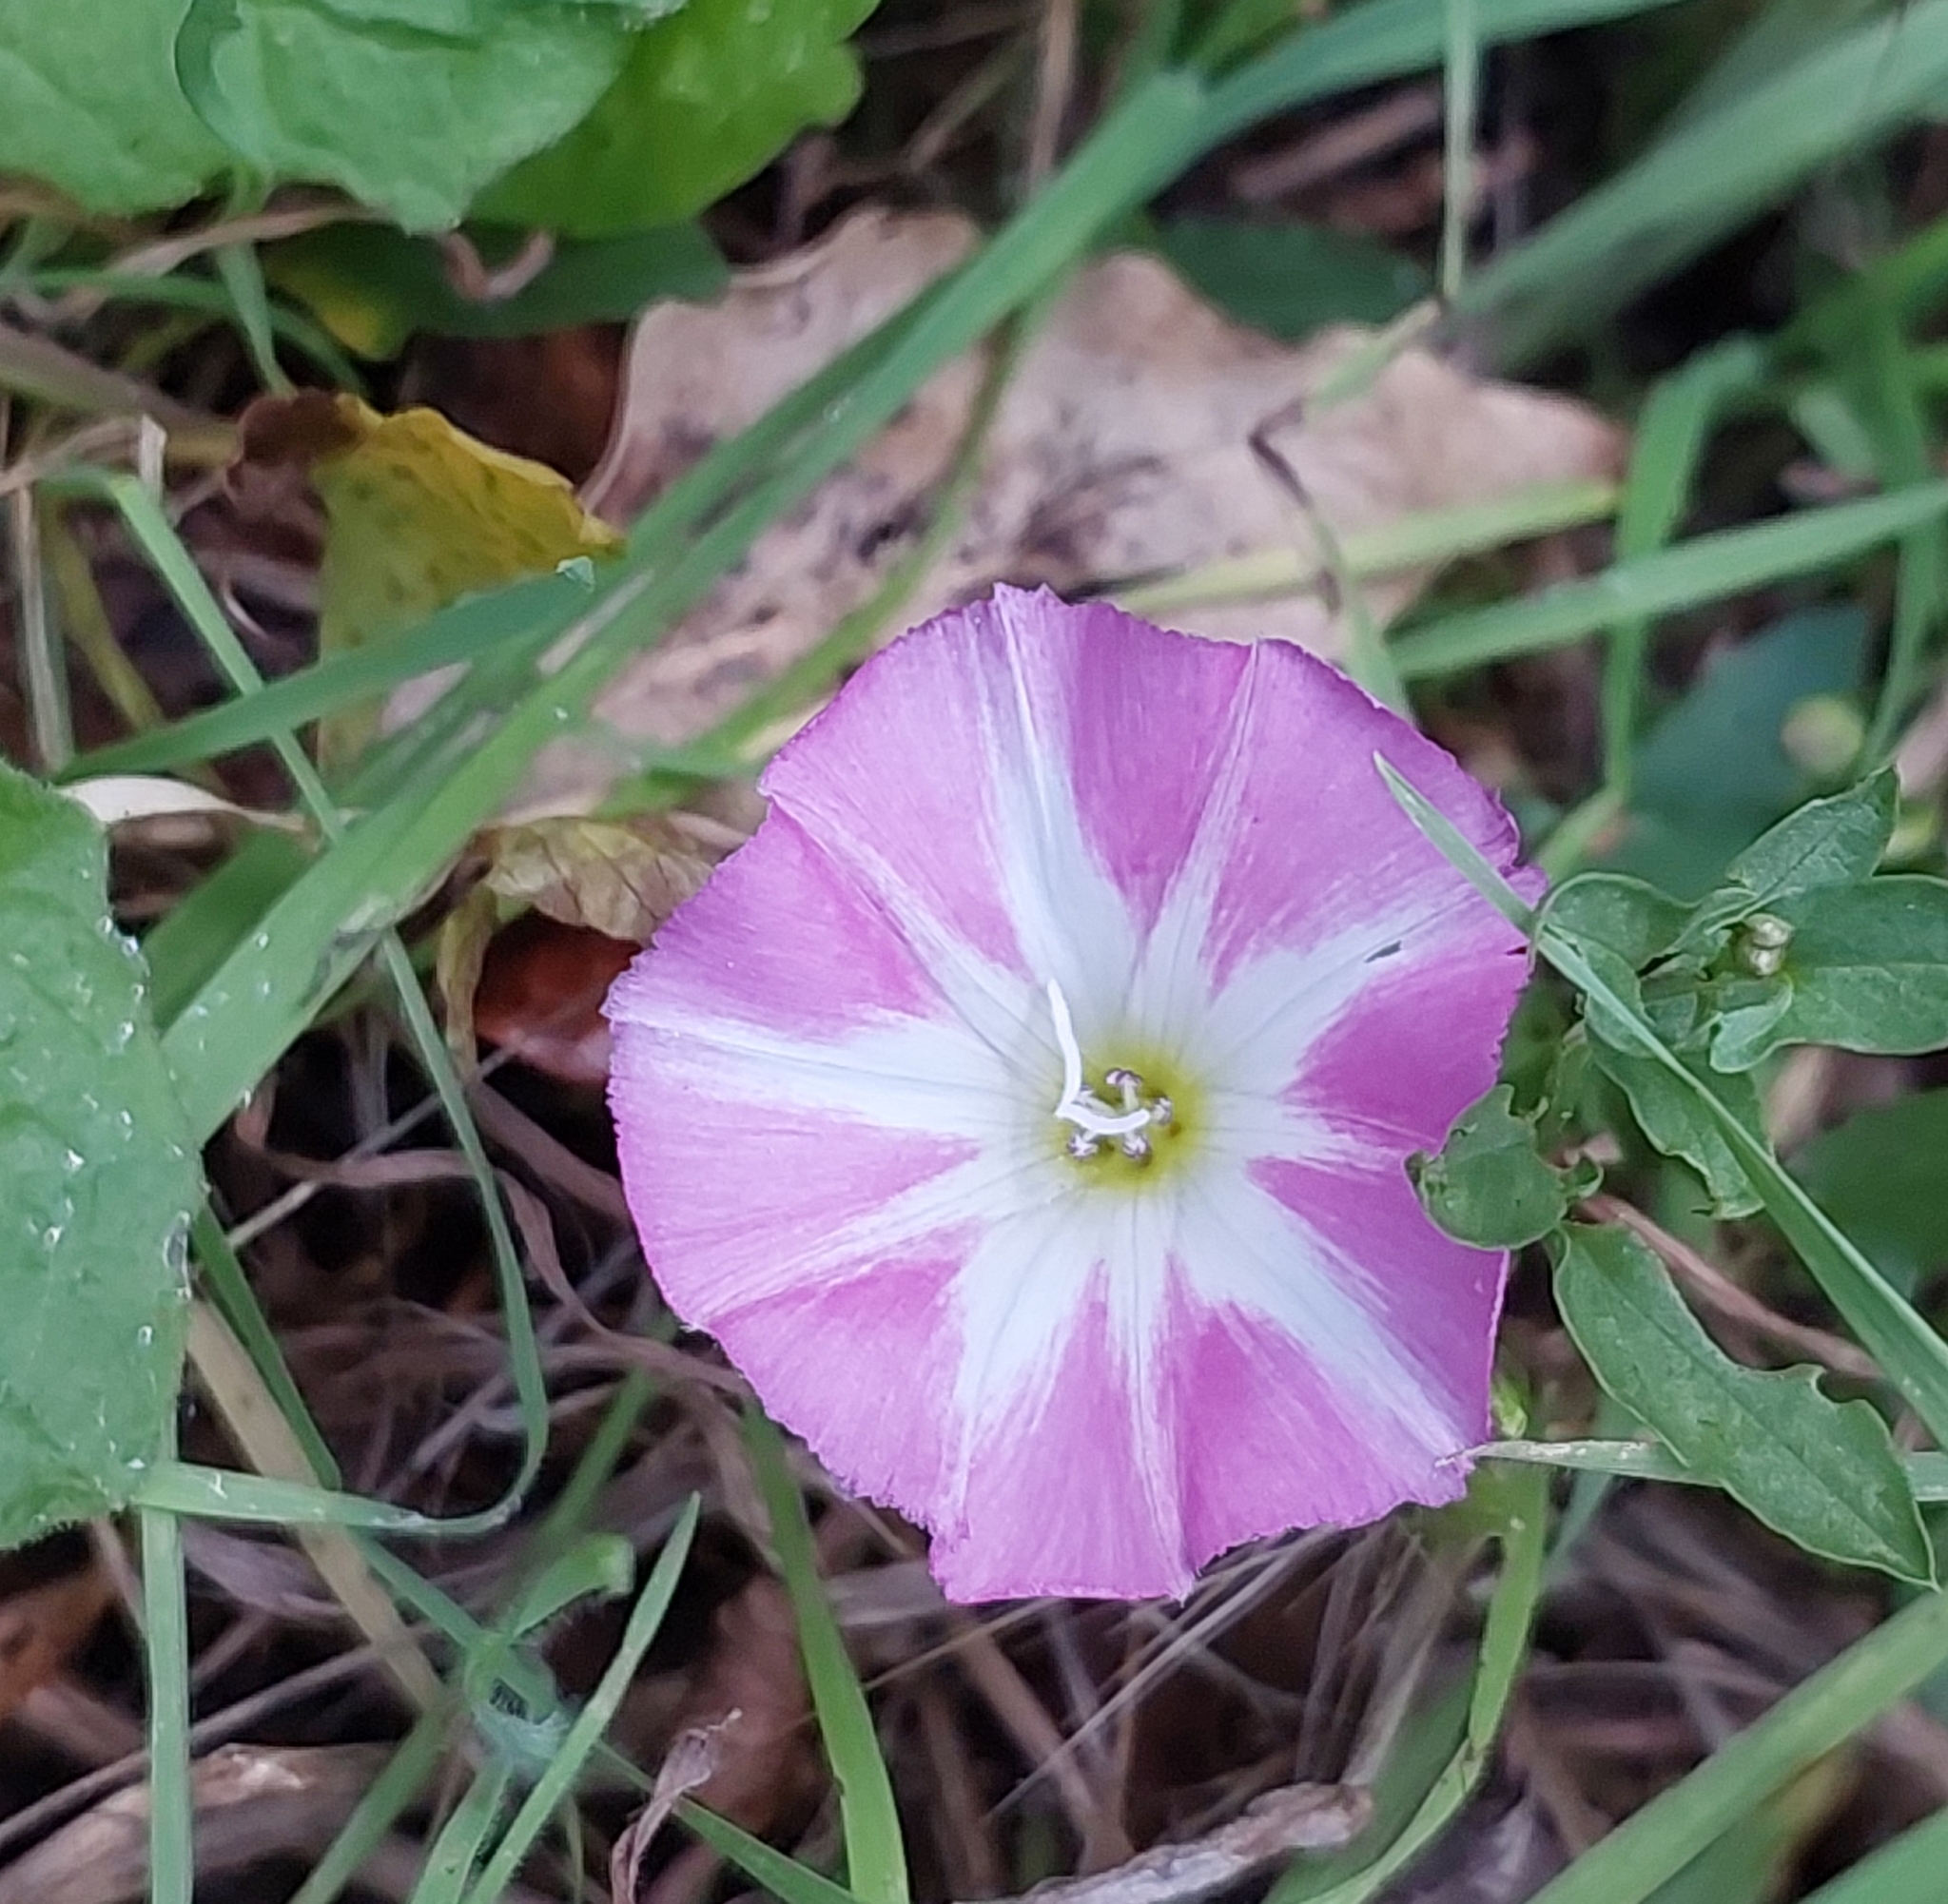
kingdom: Plantae
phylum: Tracheophyta
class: Magnoliopsida
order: Solanales
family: Convolvulaceae
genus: Convolvulus
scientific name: Convolvulus arvensis
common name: Field bindweed
